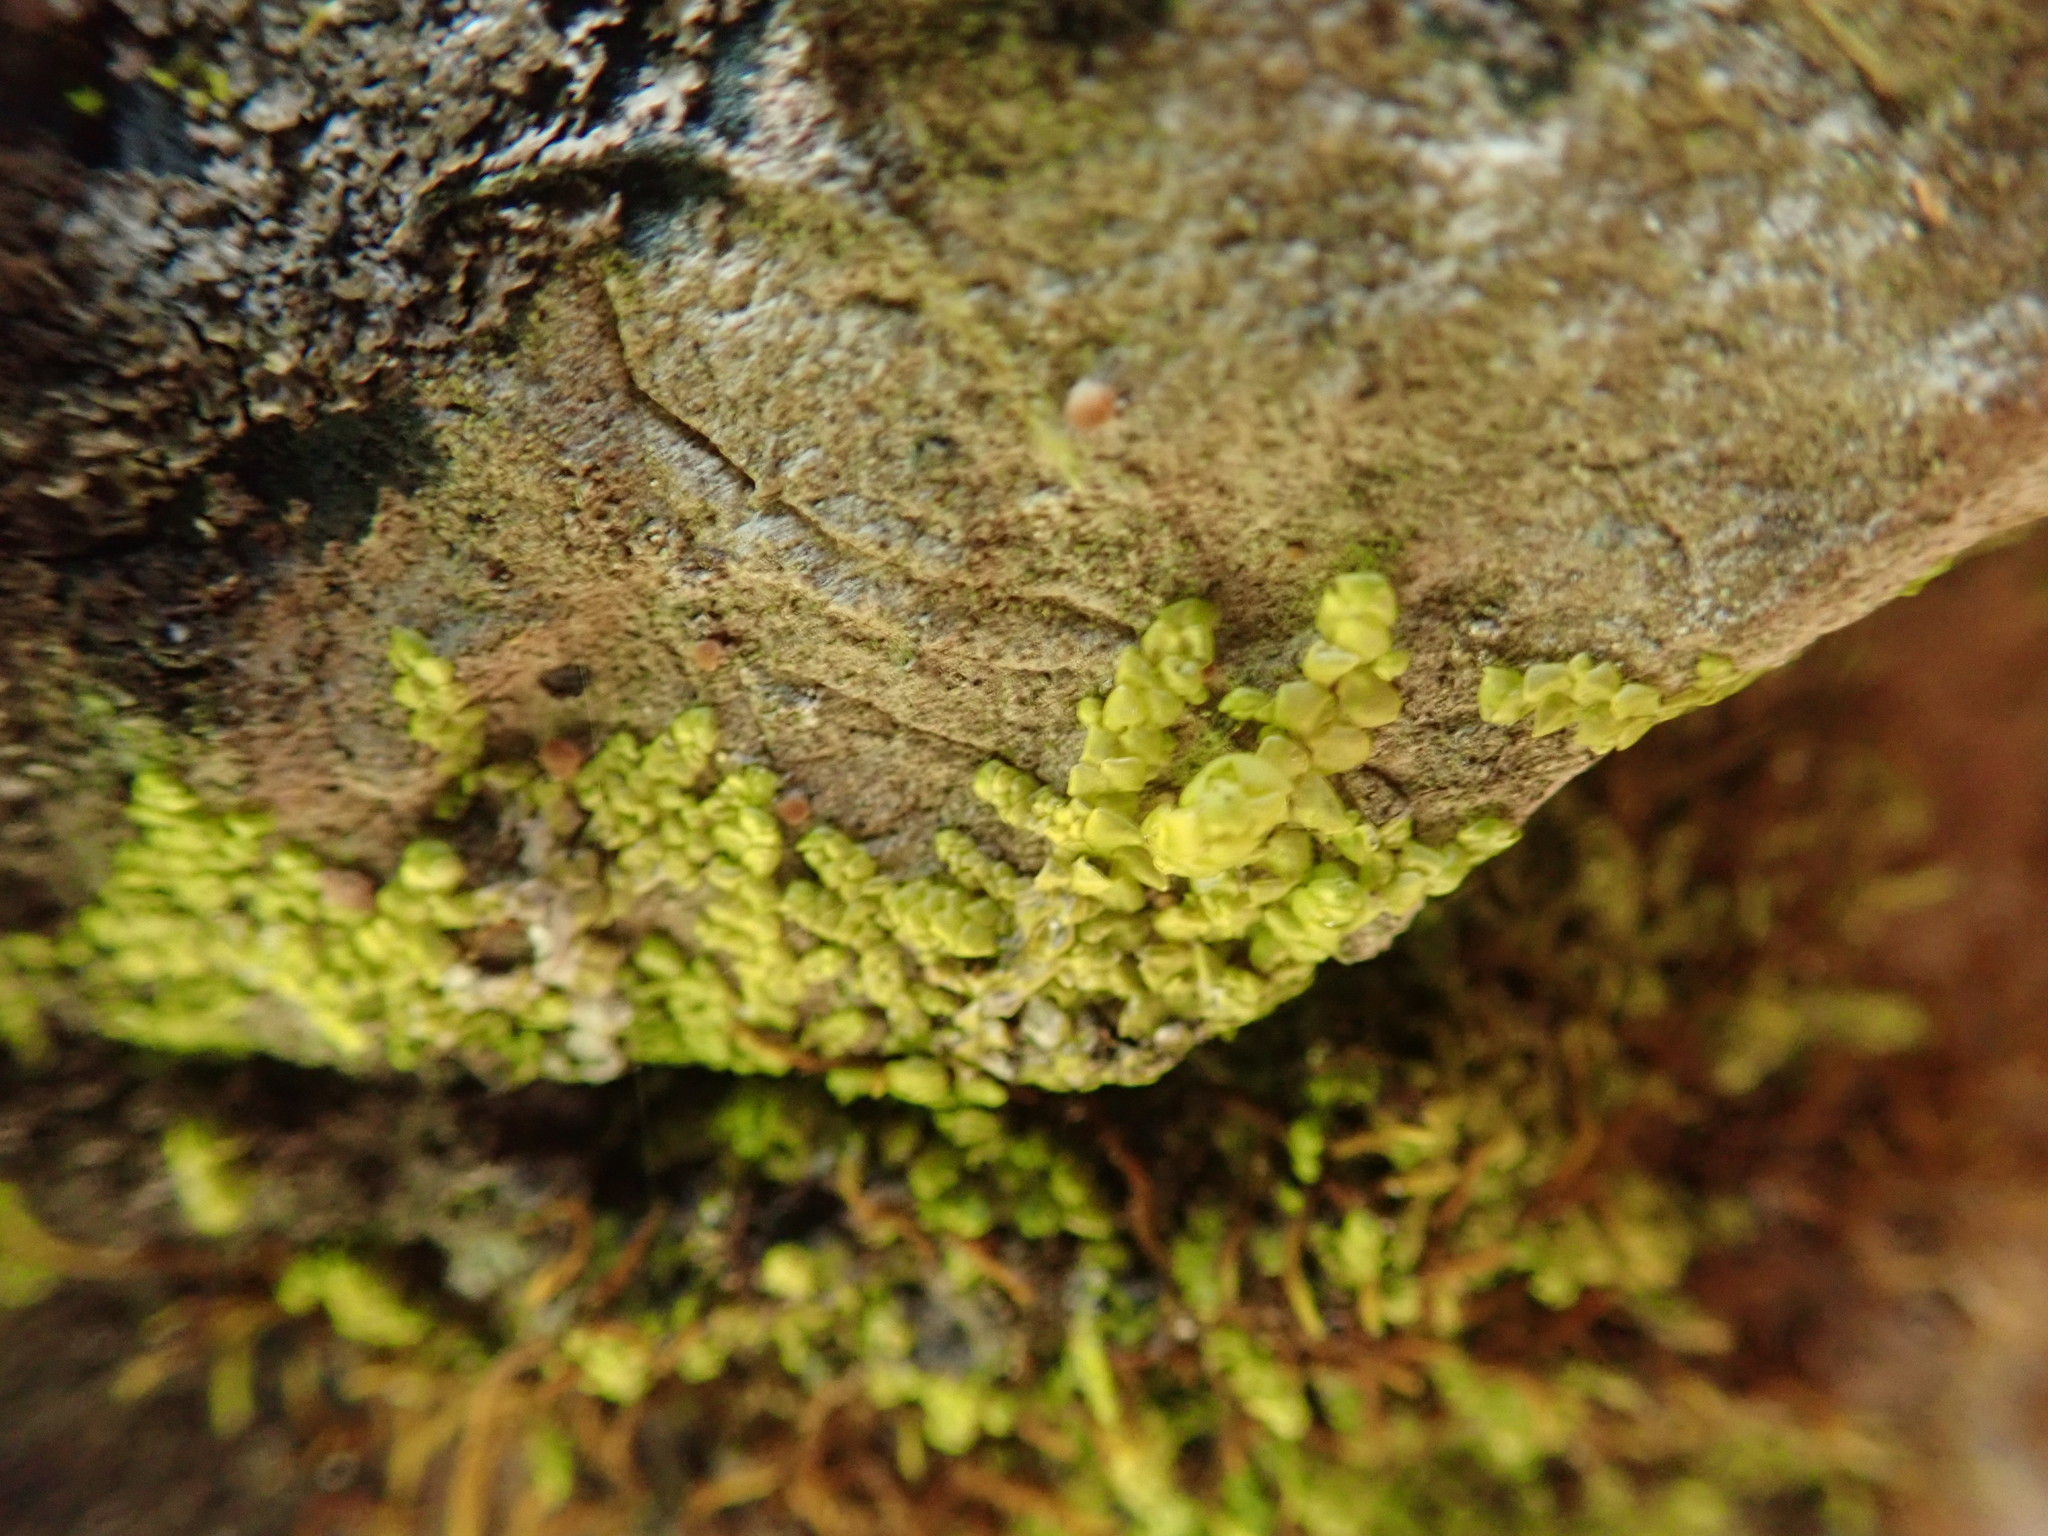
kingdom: Plantae
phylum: Marchantiophyta
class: Jungermanniopsida
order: Porellales
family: Radulaceae
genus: Radula
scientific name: Radula complanata
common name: Flat-leaved scalewort
